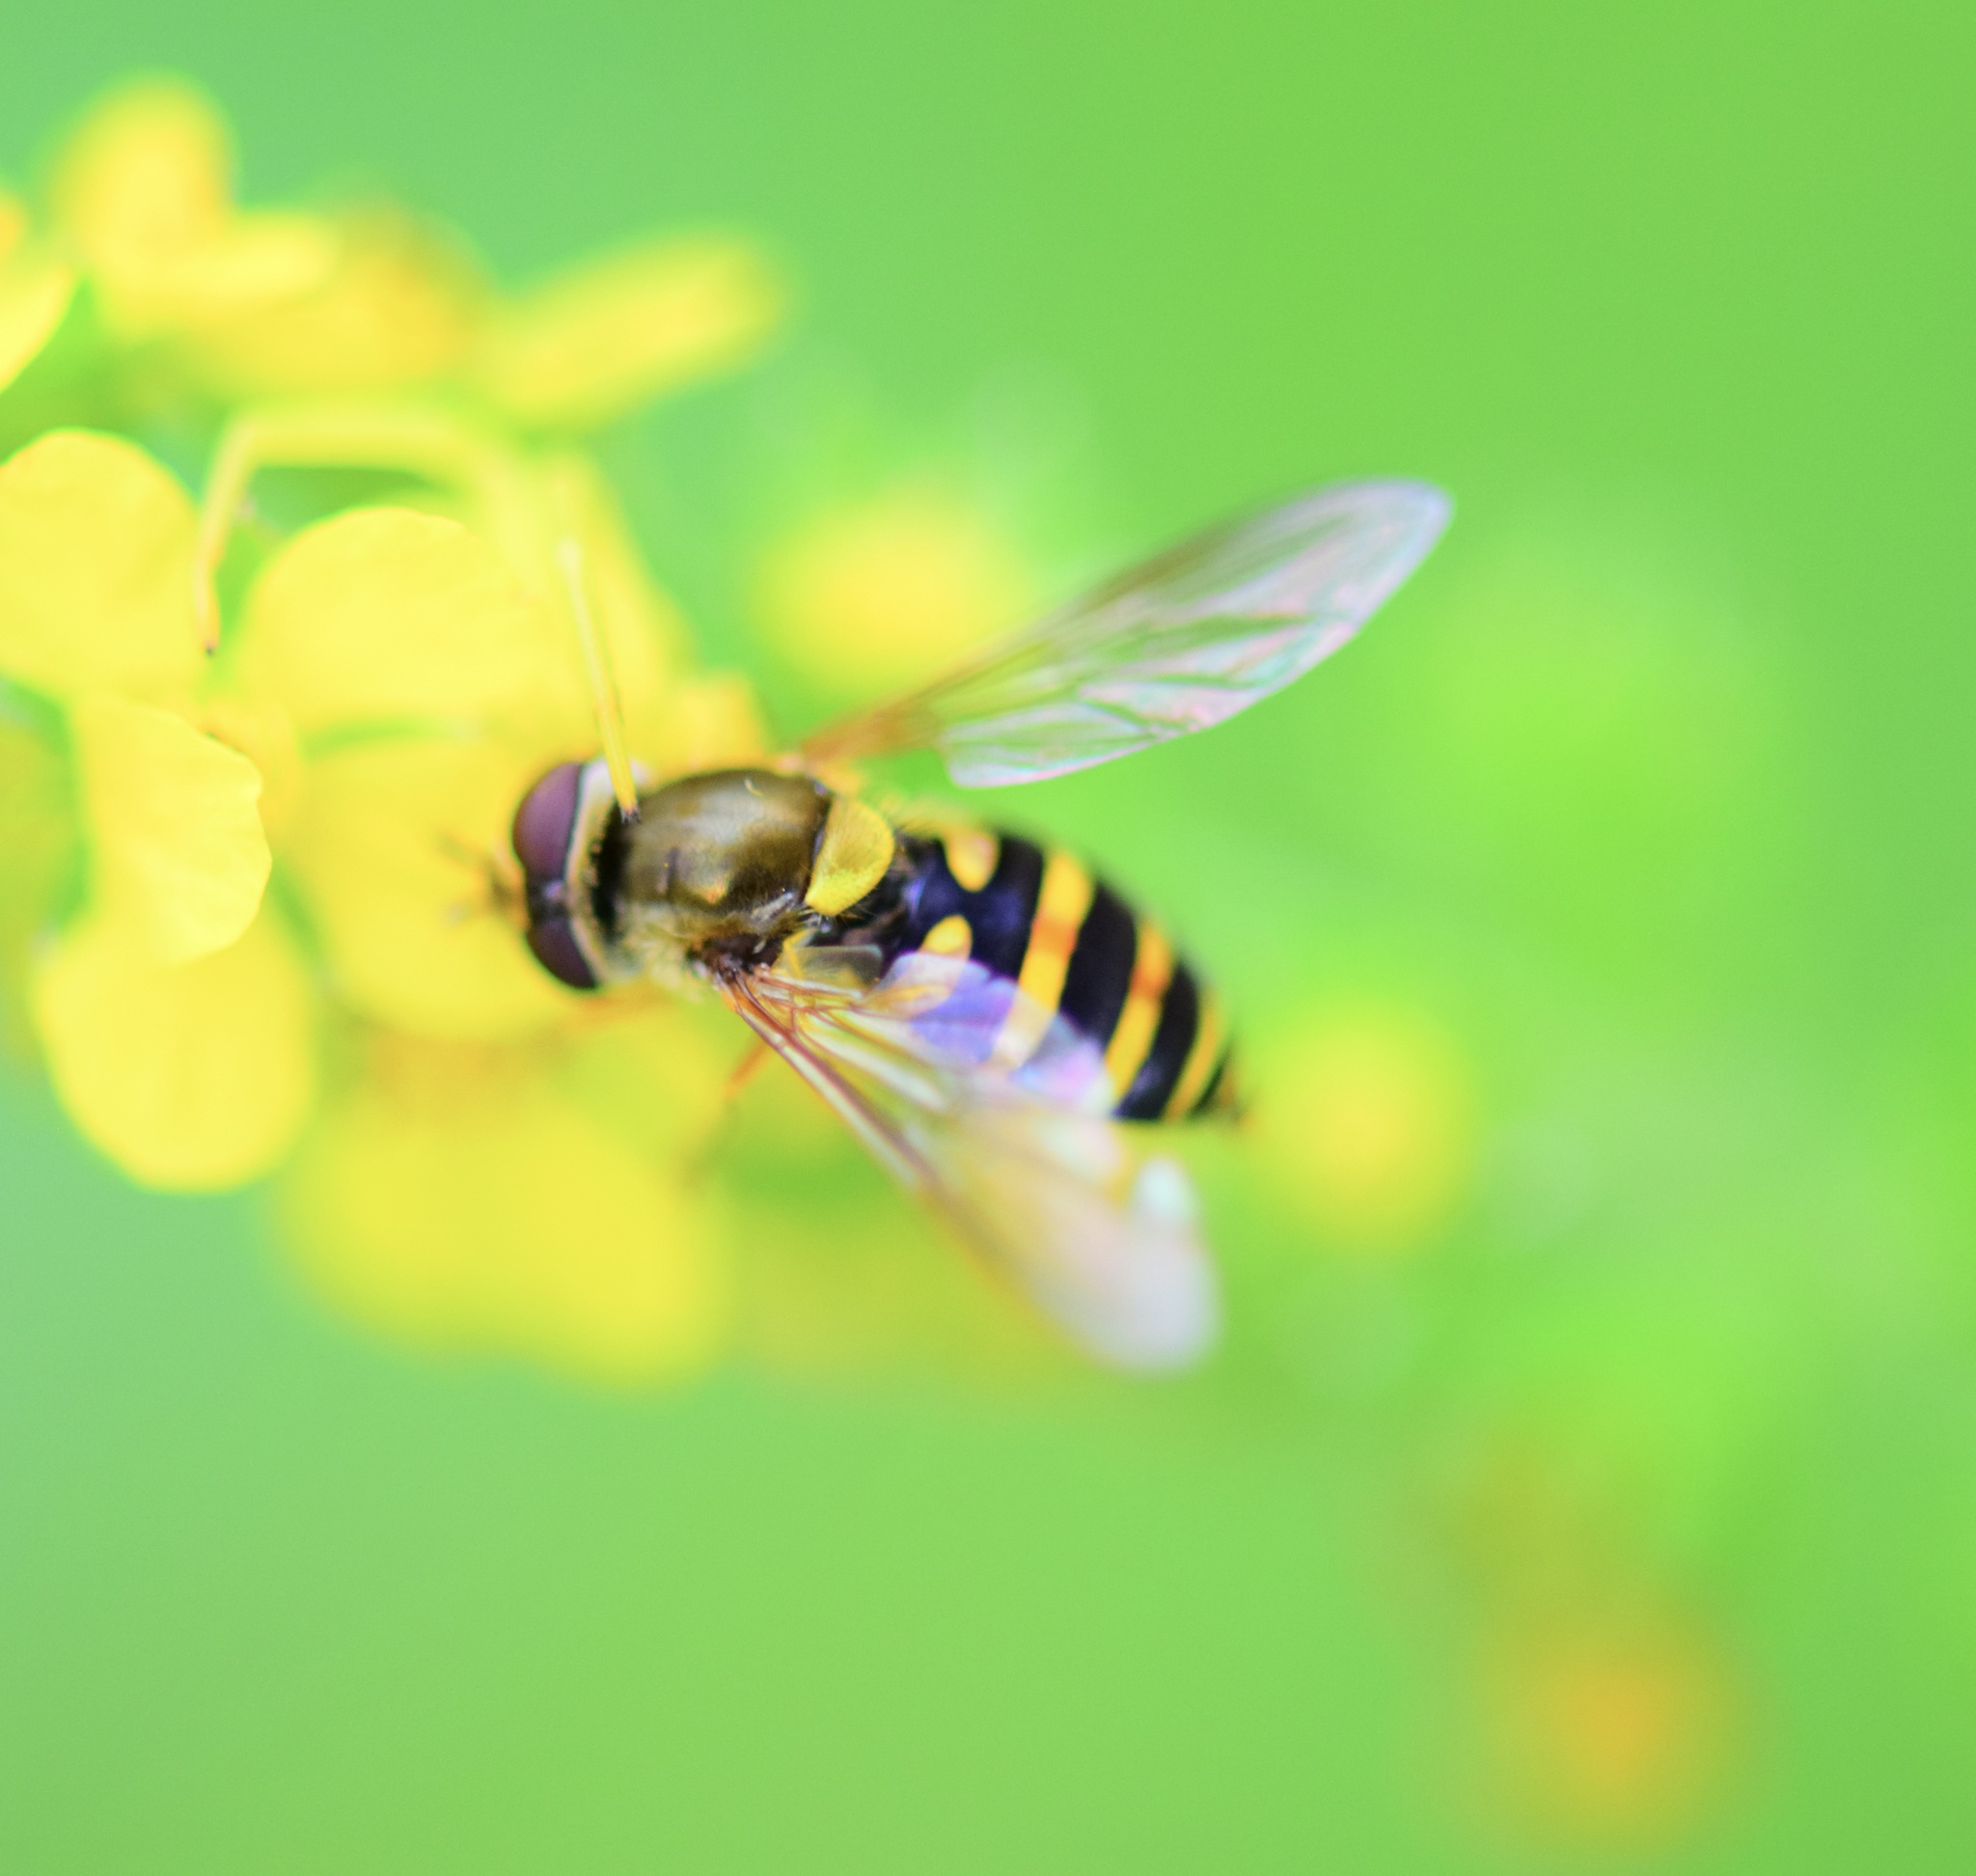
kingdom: Animalia
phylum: Arthropoda
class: Insecta
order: Diptera
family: Syrphidae
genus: Syrphus
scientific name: Syrphus
